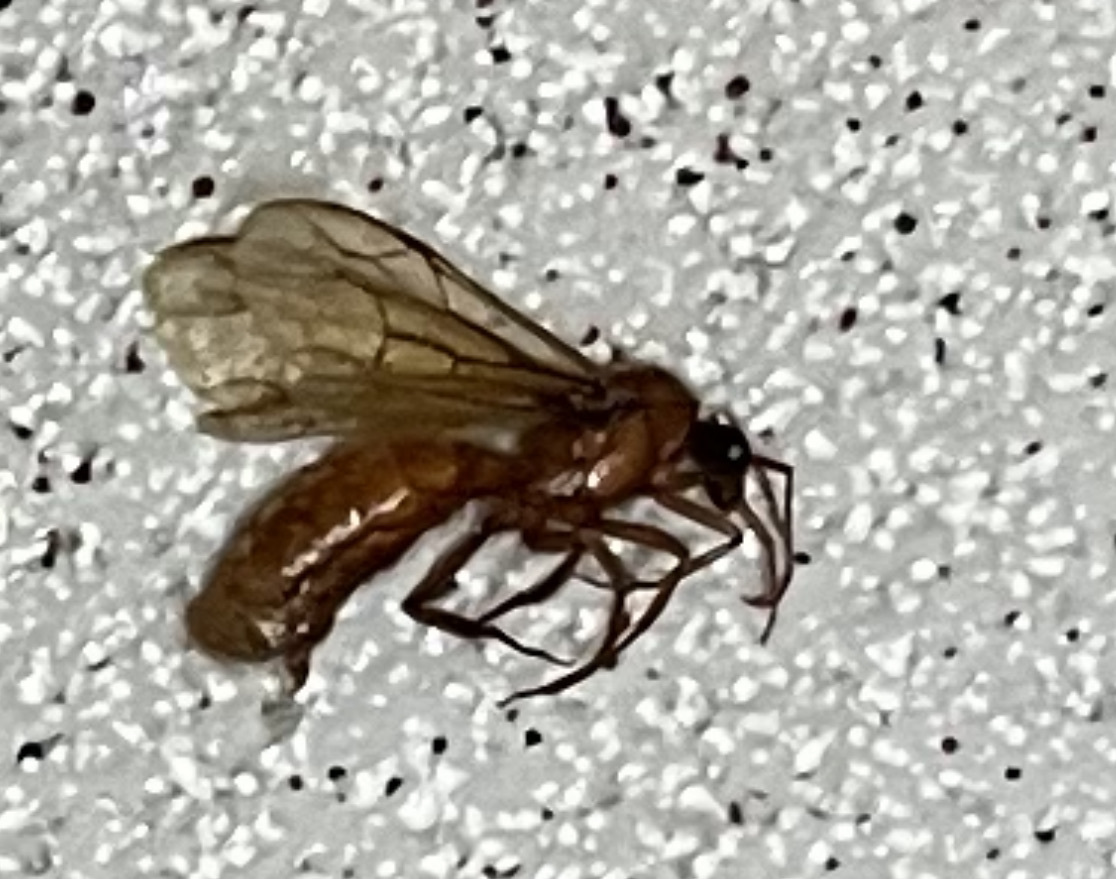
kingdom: Animalia
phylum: Arthropoda
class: Insecta
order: Hymenoptera
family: Formicidae
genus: Labidus
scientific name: Labidus coecus
